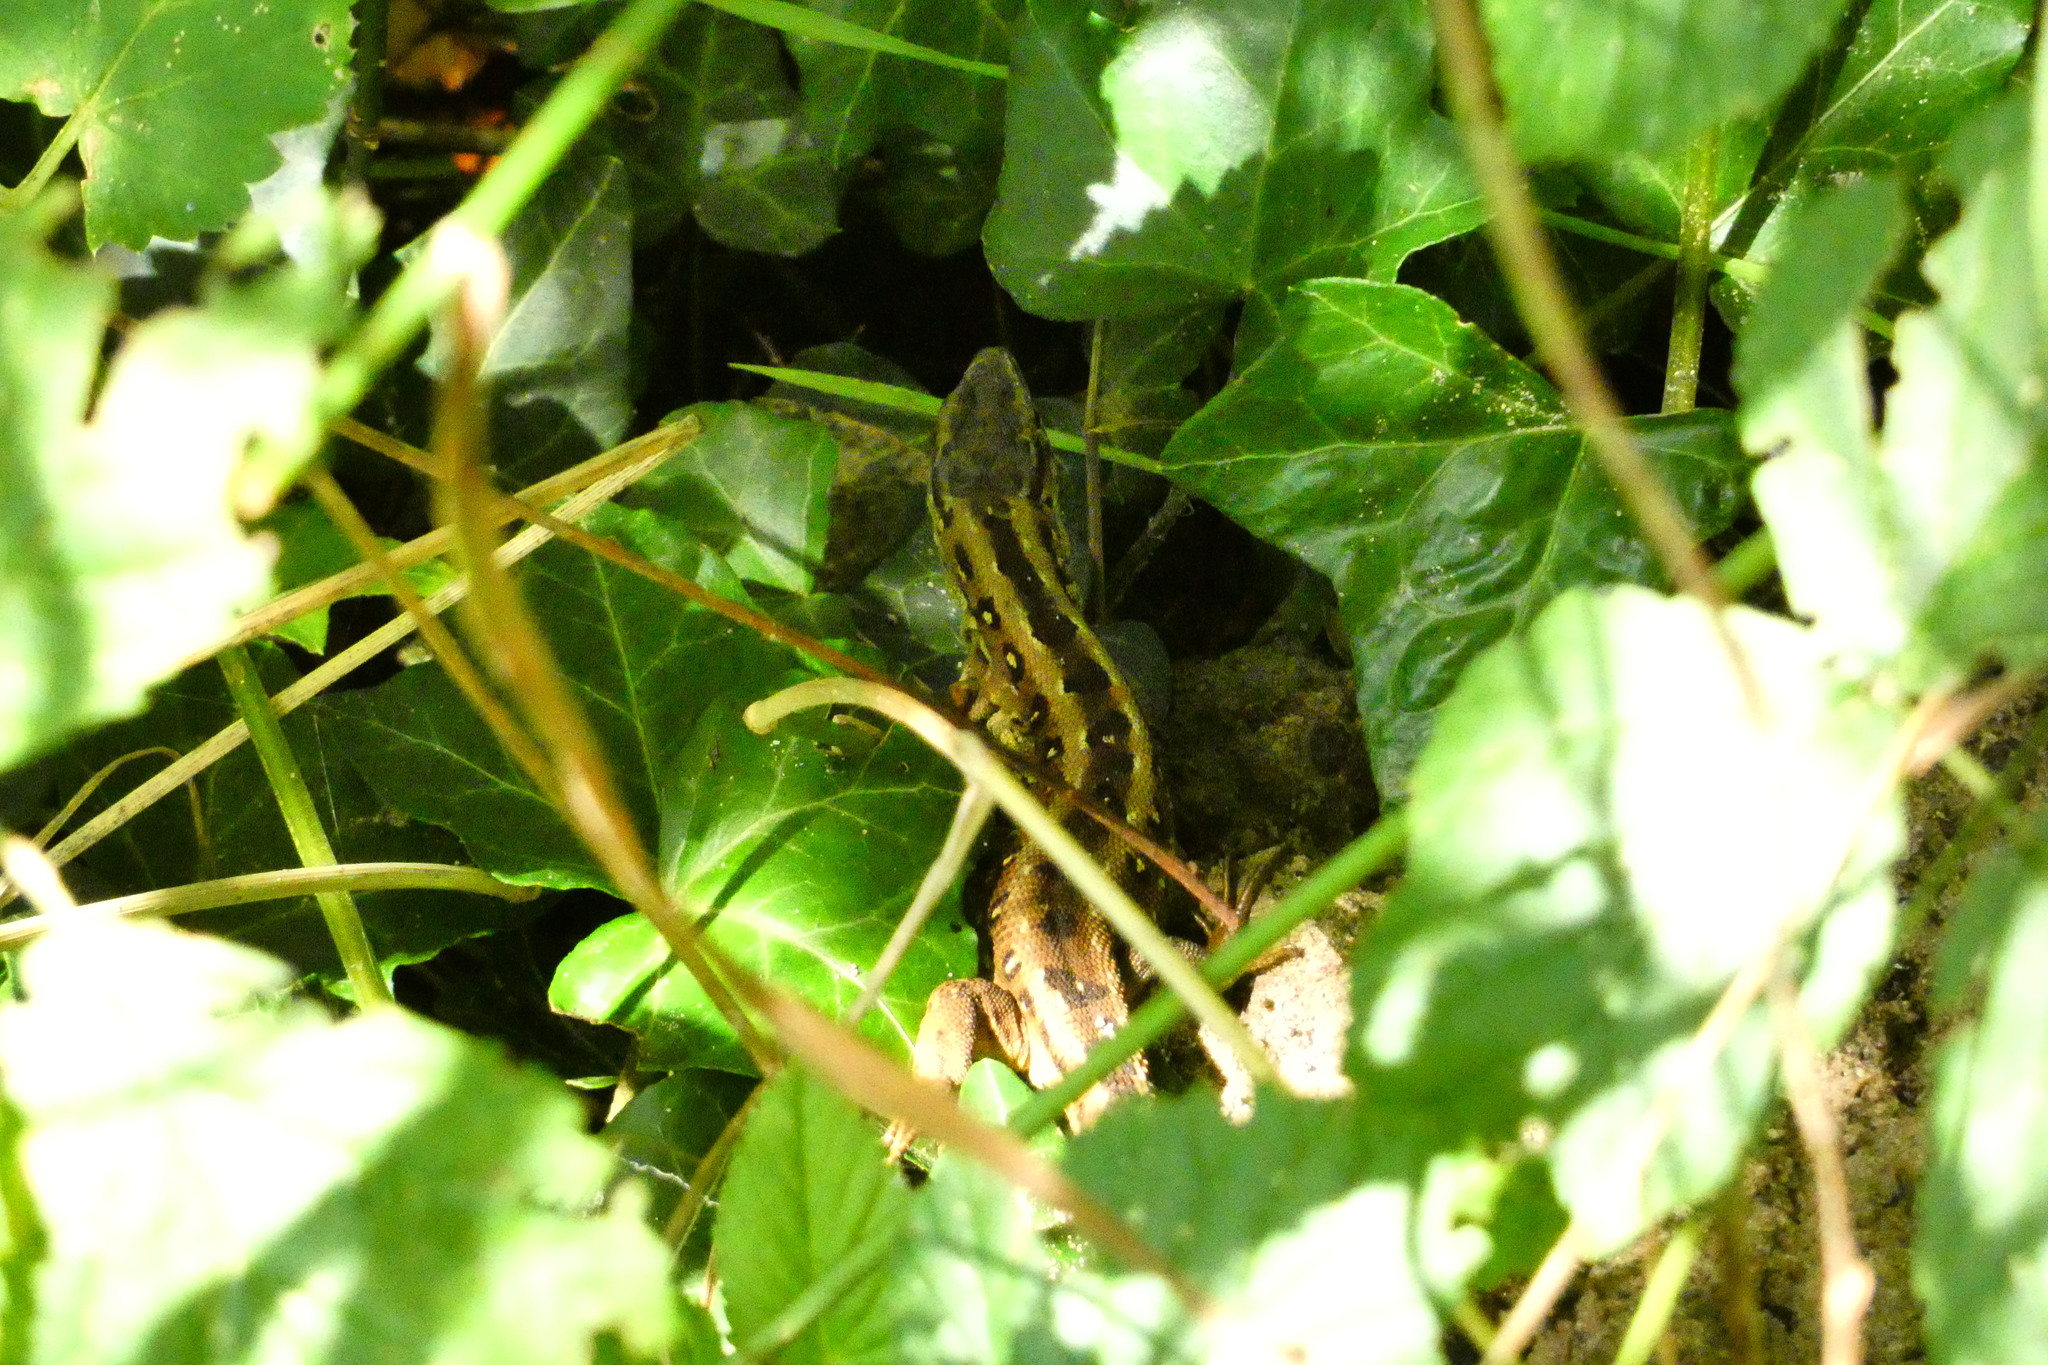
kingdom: Animalia
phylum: Chordata
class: Squamata
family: Lacertidae
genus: Lacerta
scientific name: Lacerta agilis
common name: Sand lizard
